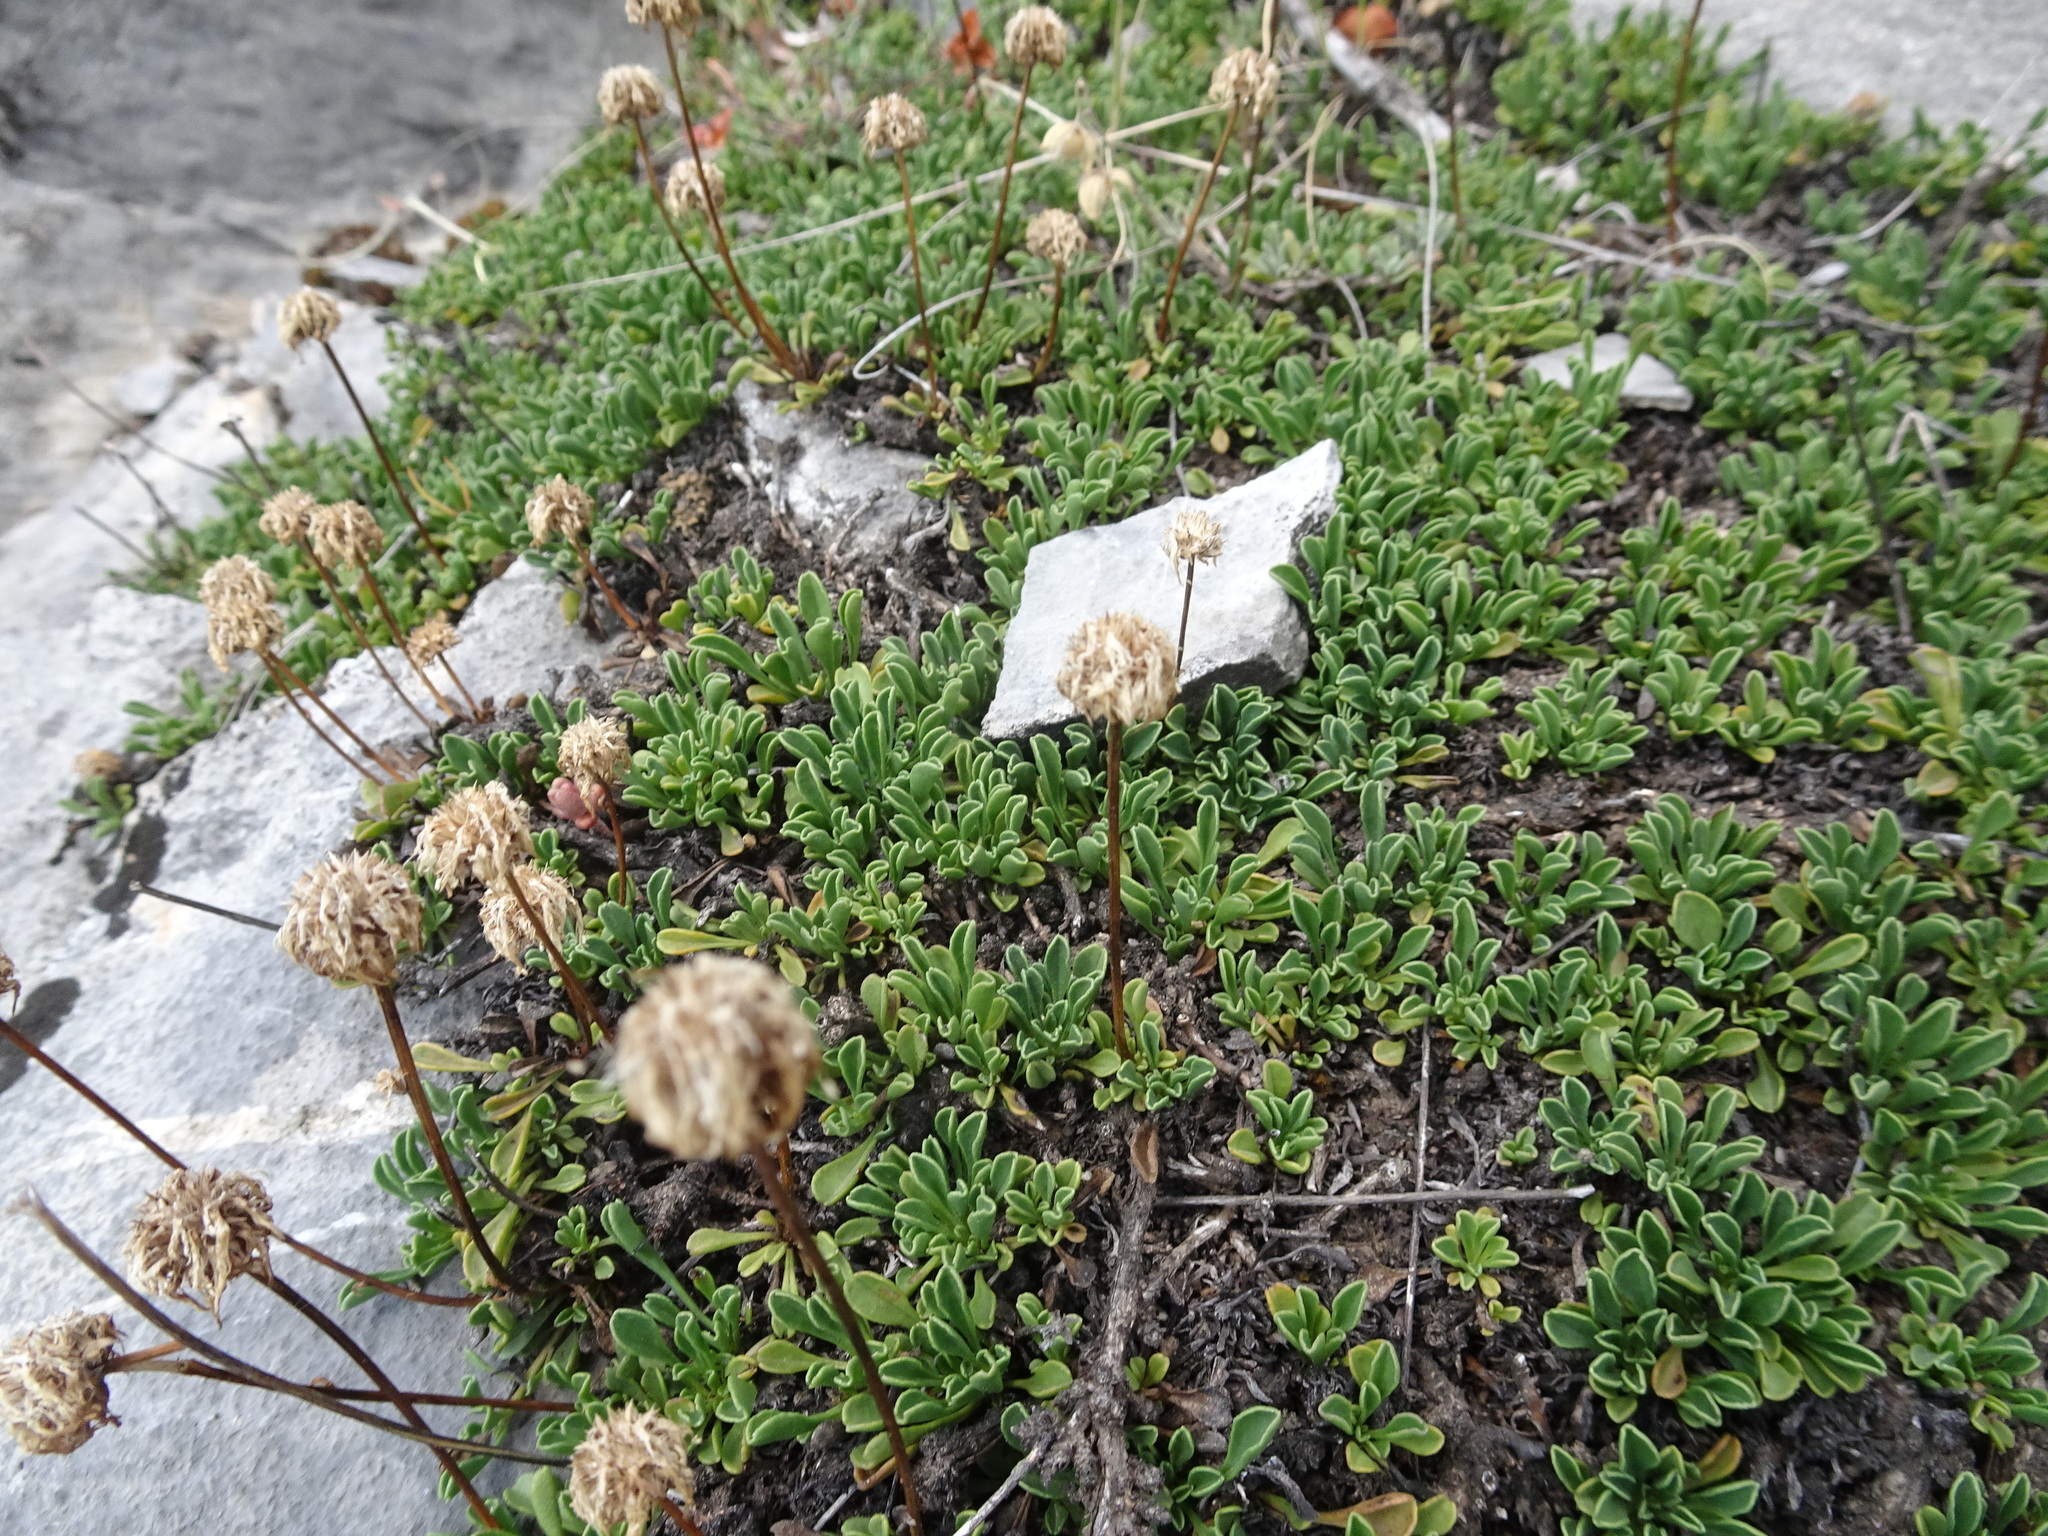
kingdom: Plantae
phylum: Tracheophyta
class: Magnoliopsida
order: Lamiales
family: Plantaginaceae
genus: Globularia
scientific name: Globularia cordifolia
